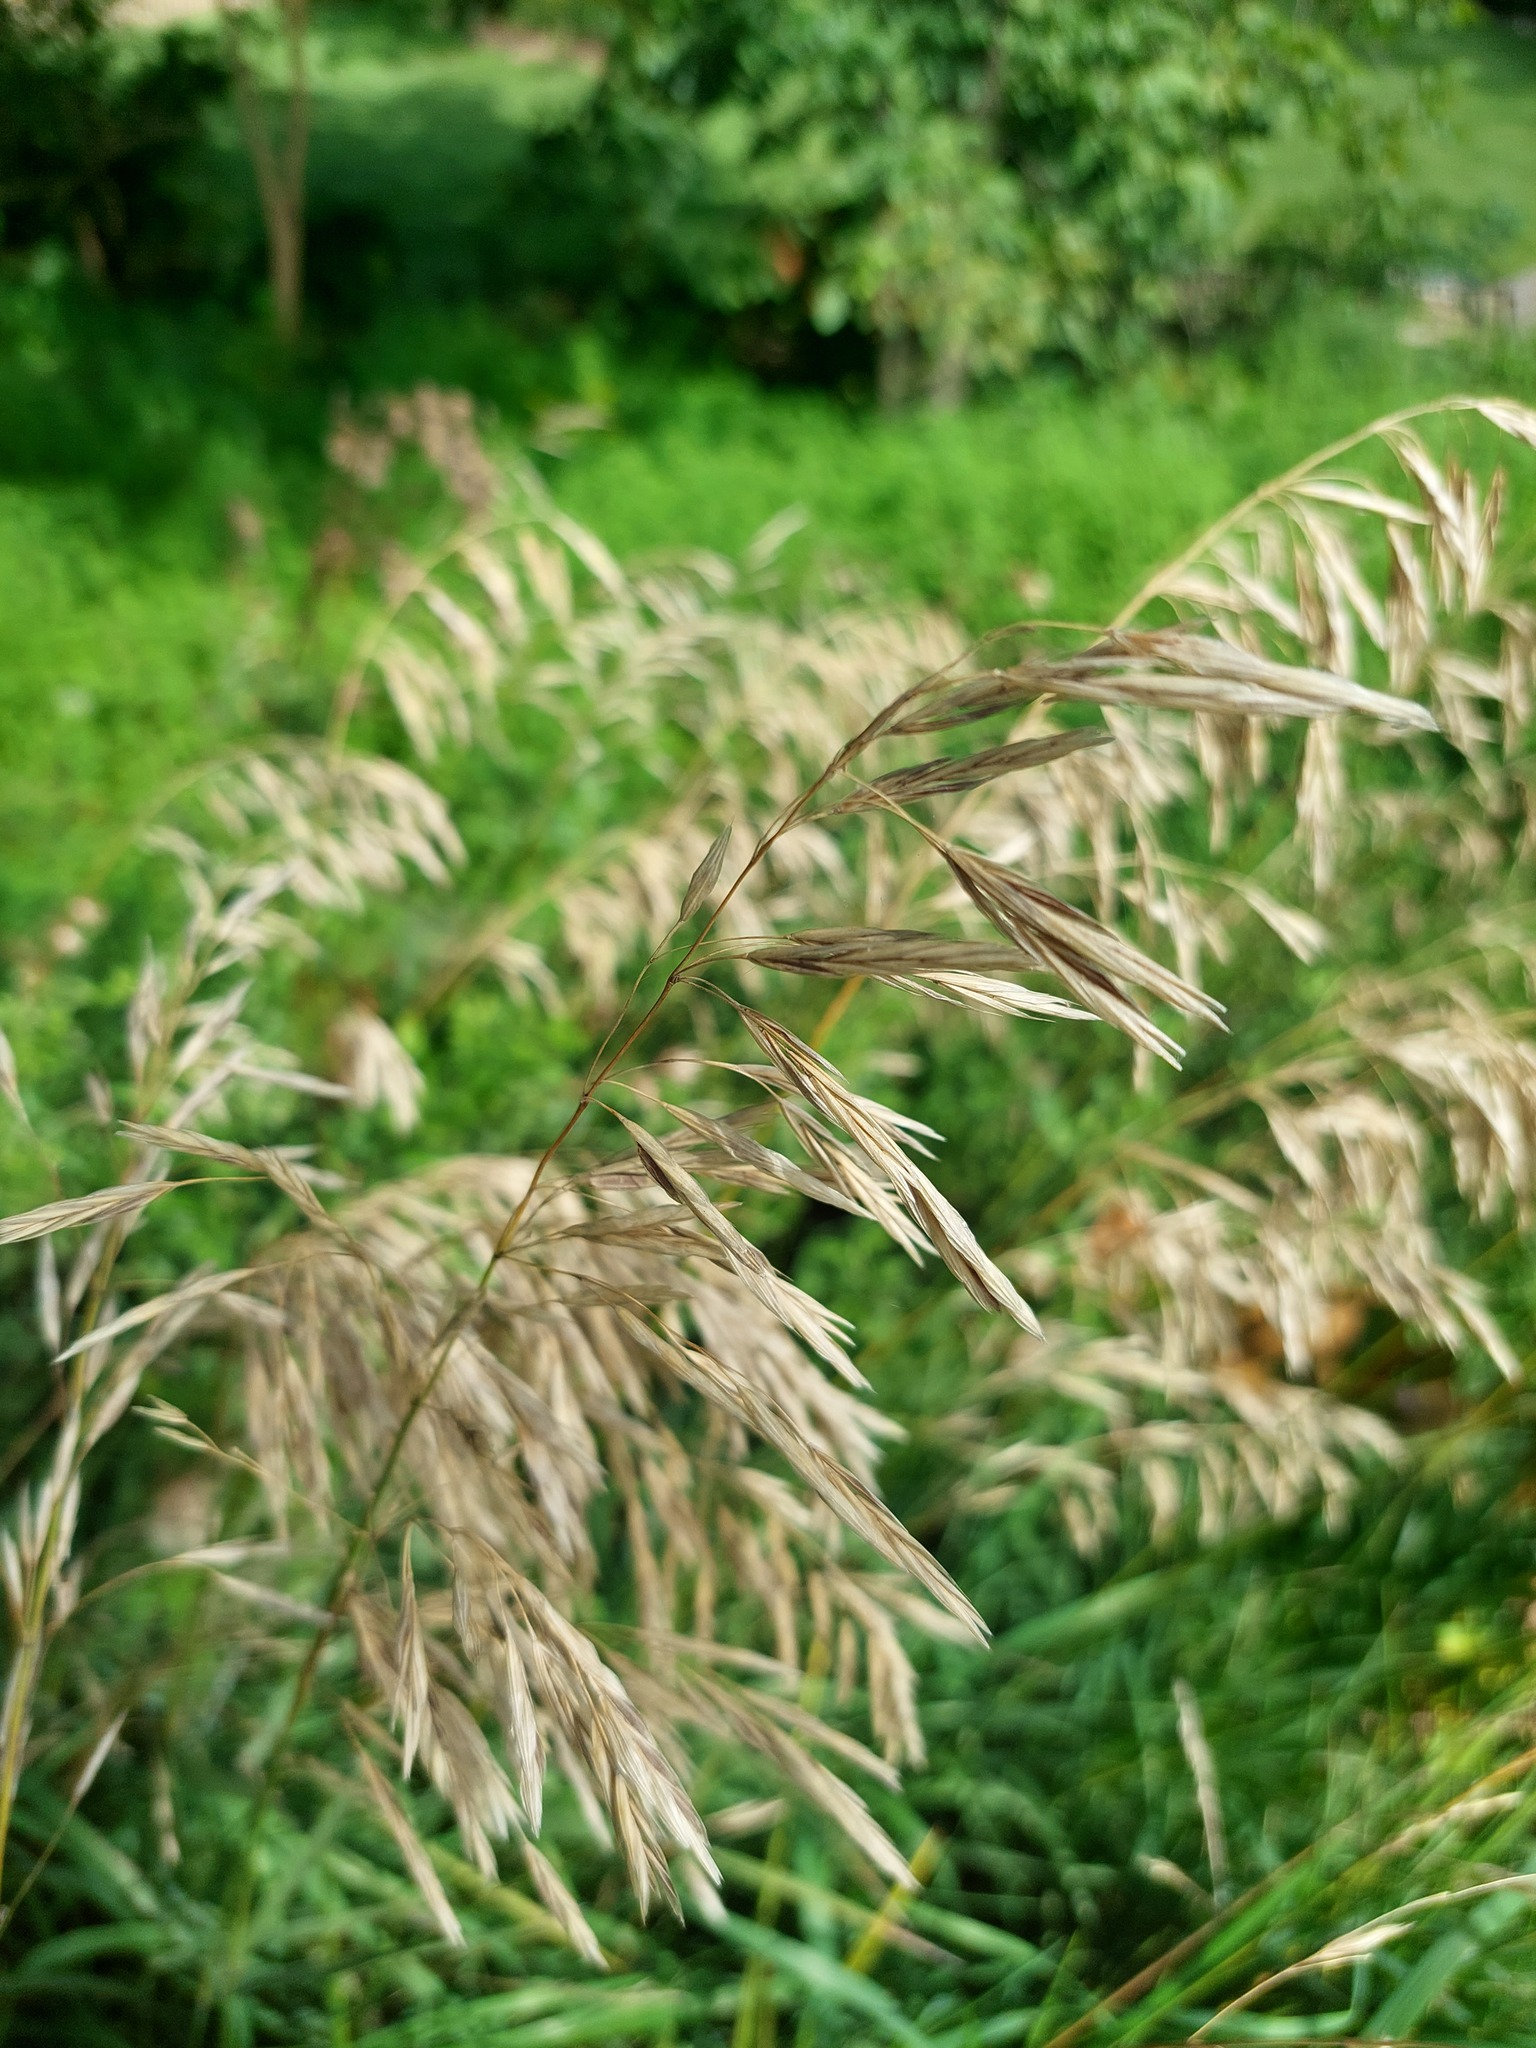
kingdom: Plantae
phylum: Tracheophyta
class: Liliopsida
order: Poales
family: Poaceae
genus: Bromus
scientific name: Bromus inermis
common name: Smooth brome
